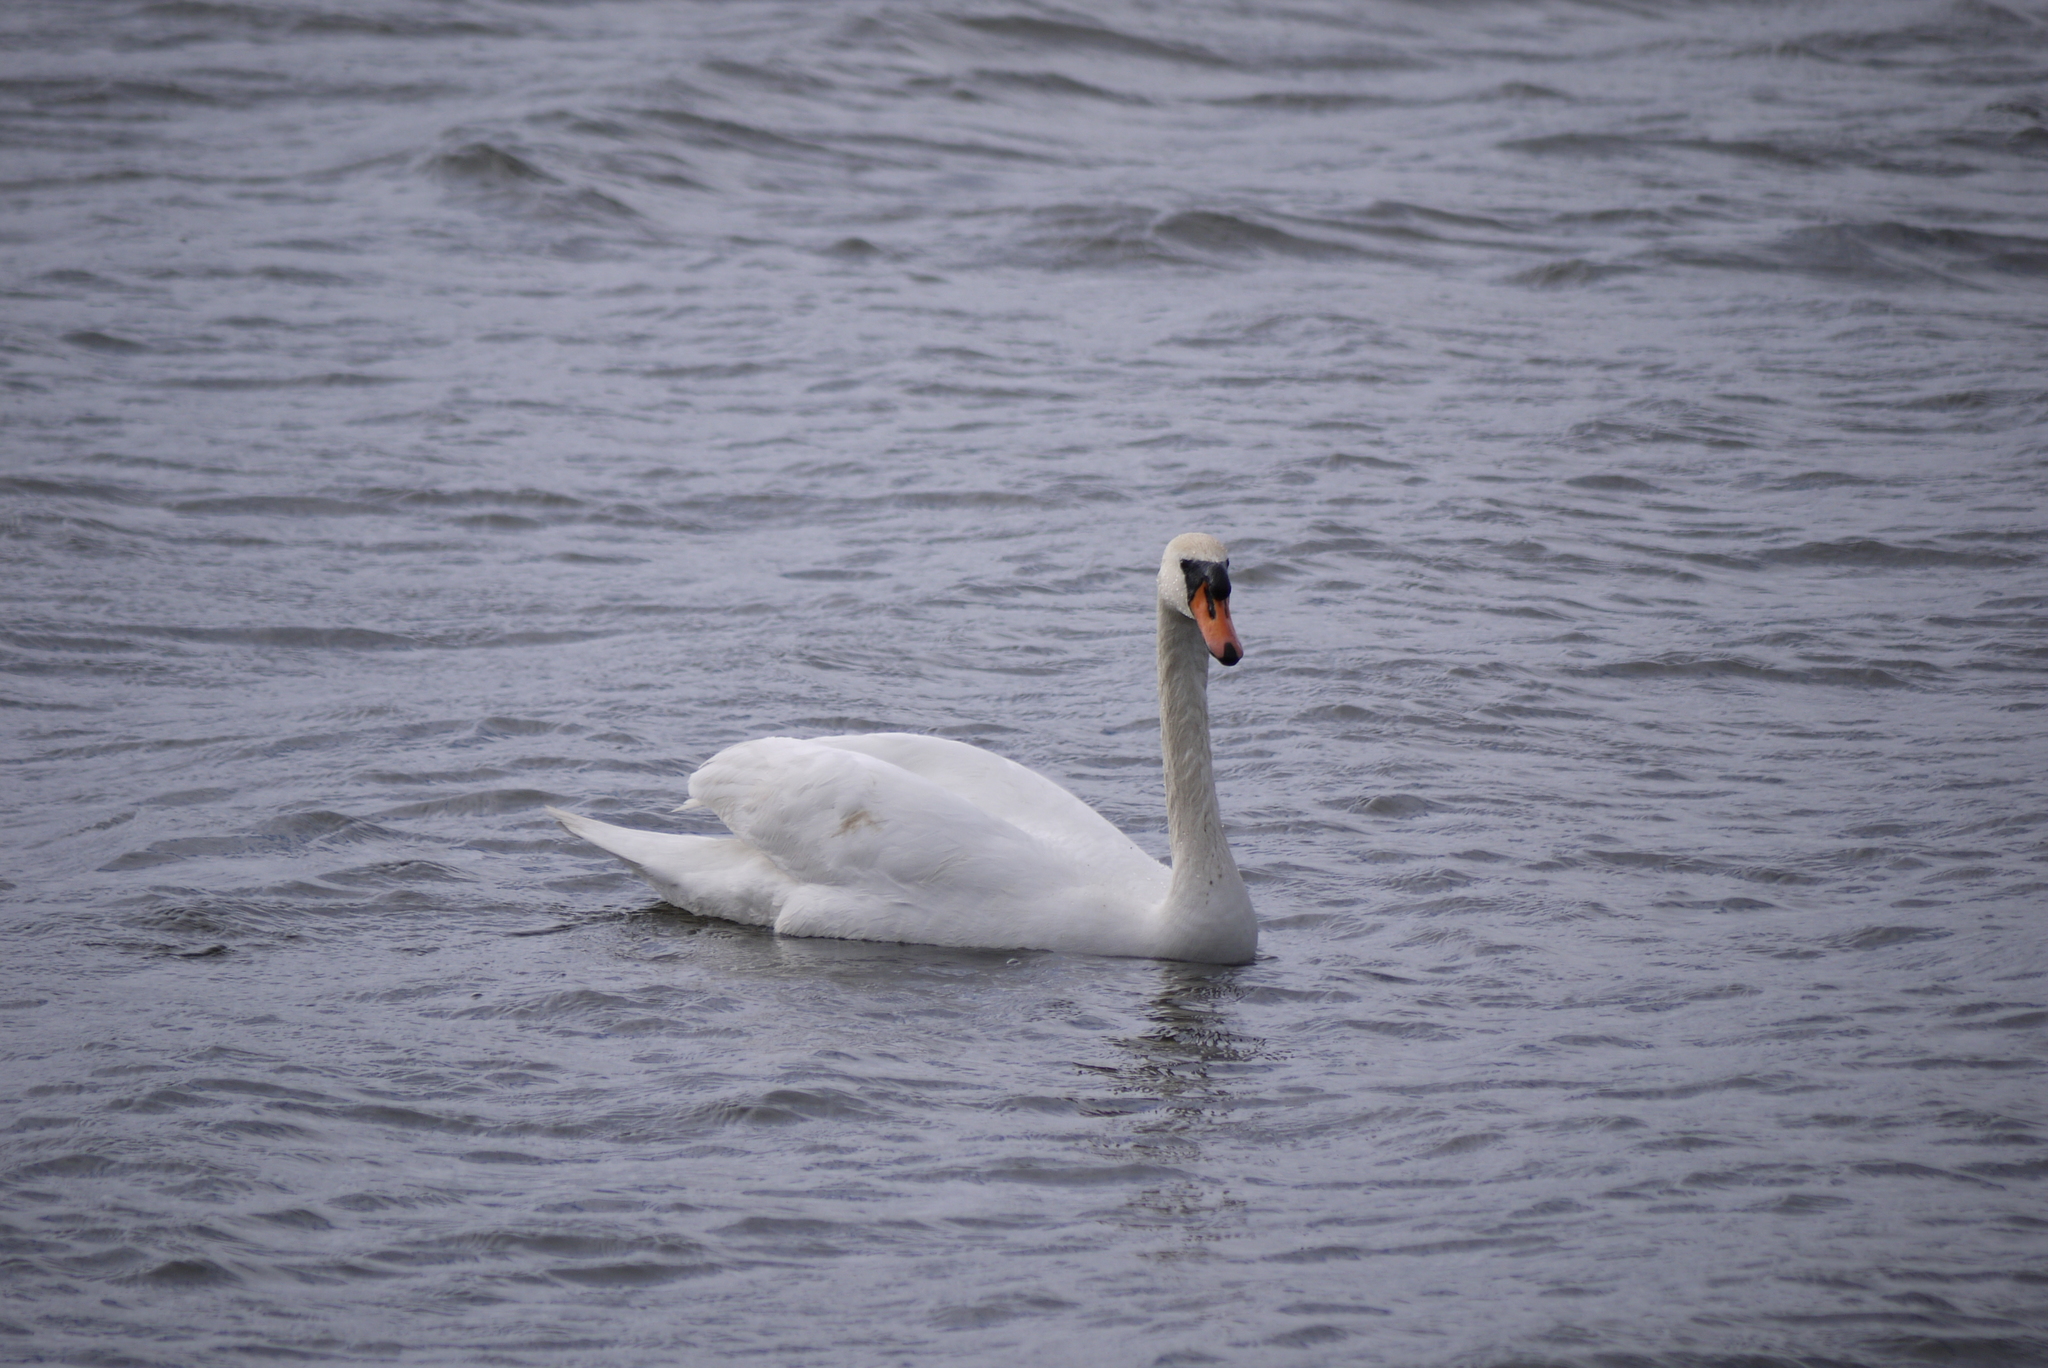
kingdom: Animalia
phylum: Chordata
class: Aves
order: Anseriformes
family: Anatidae
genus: Cygnus
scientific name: Cygnus olor
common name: Mute swan
